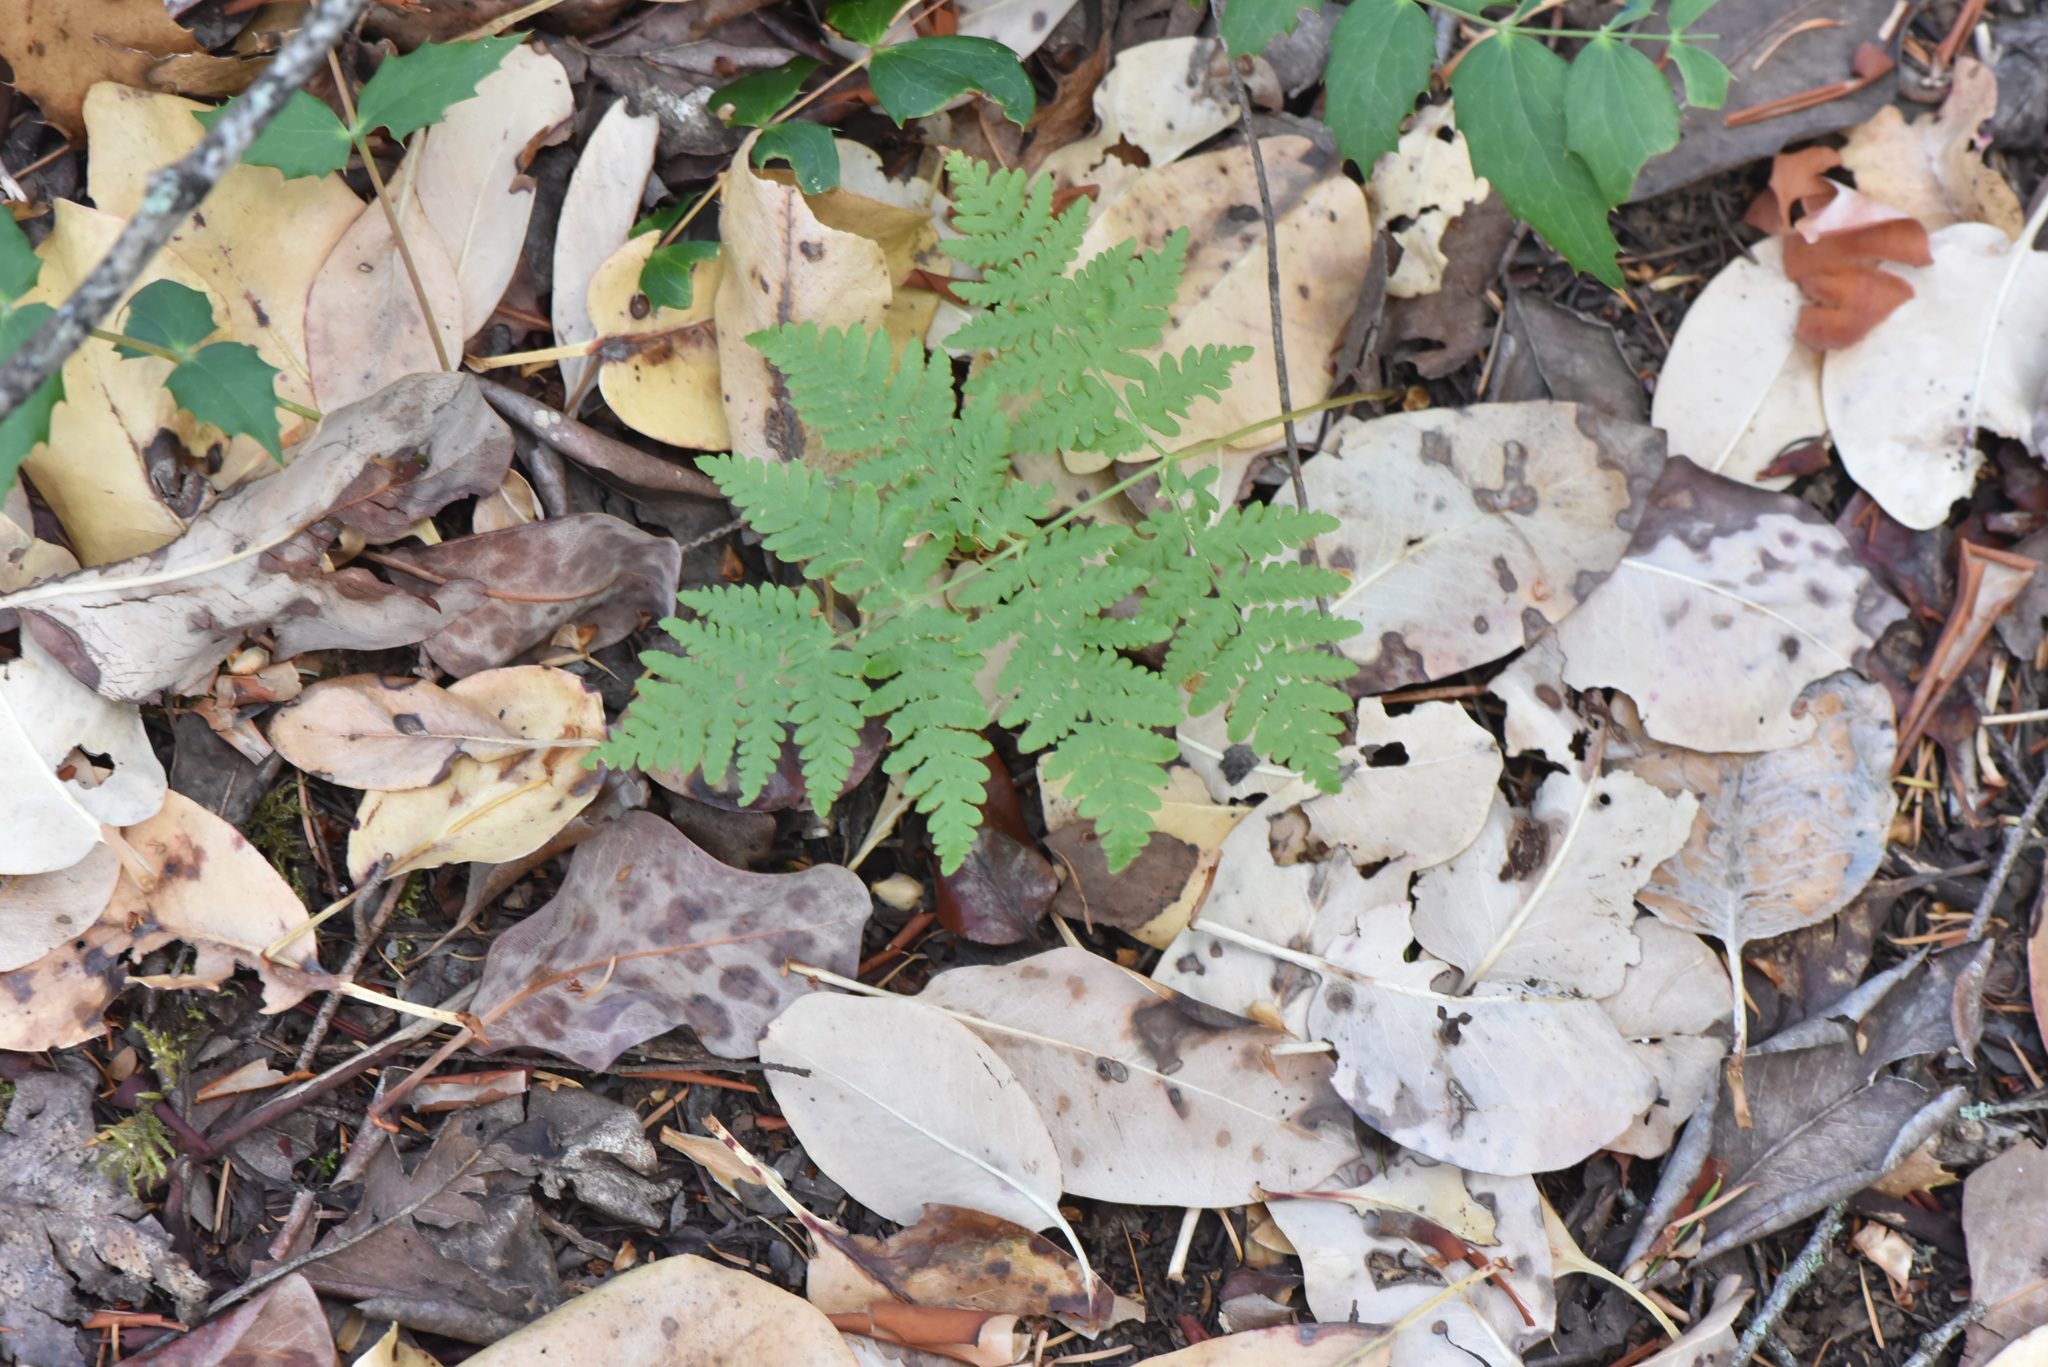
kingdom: Plantae
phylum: Tracheophyta
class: Polypodiopsida
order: Polypodiales
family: Dennstaedtiaceae
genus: Pteridium
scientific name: Pteridium aquilinum
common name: Bracken
